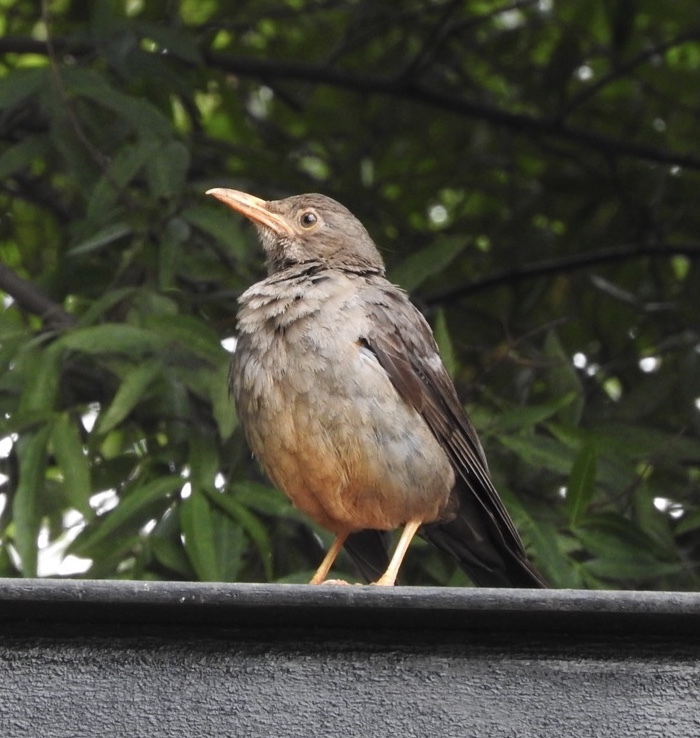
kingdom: Animalia
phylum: Chordata
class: Aves
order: Passeriformes
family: Turdidae
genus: Turdus
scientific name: Turdus smithi
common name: Karoo thrush
